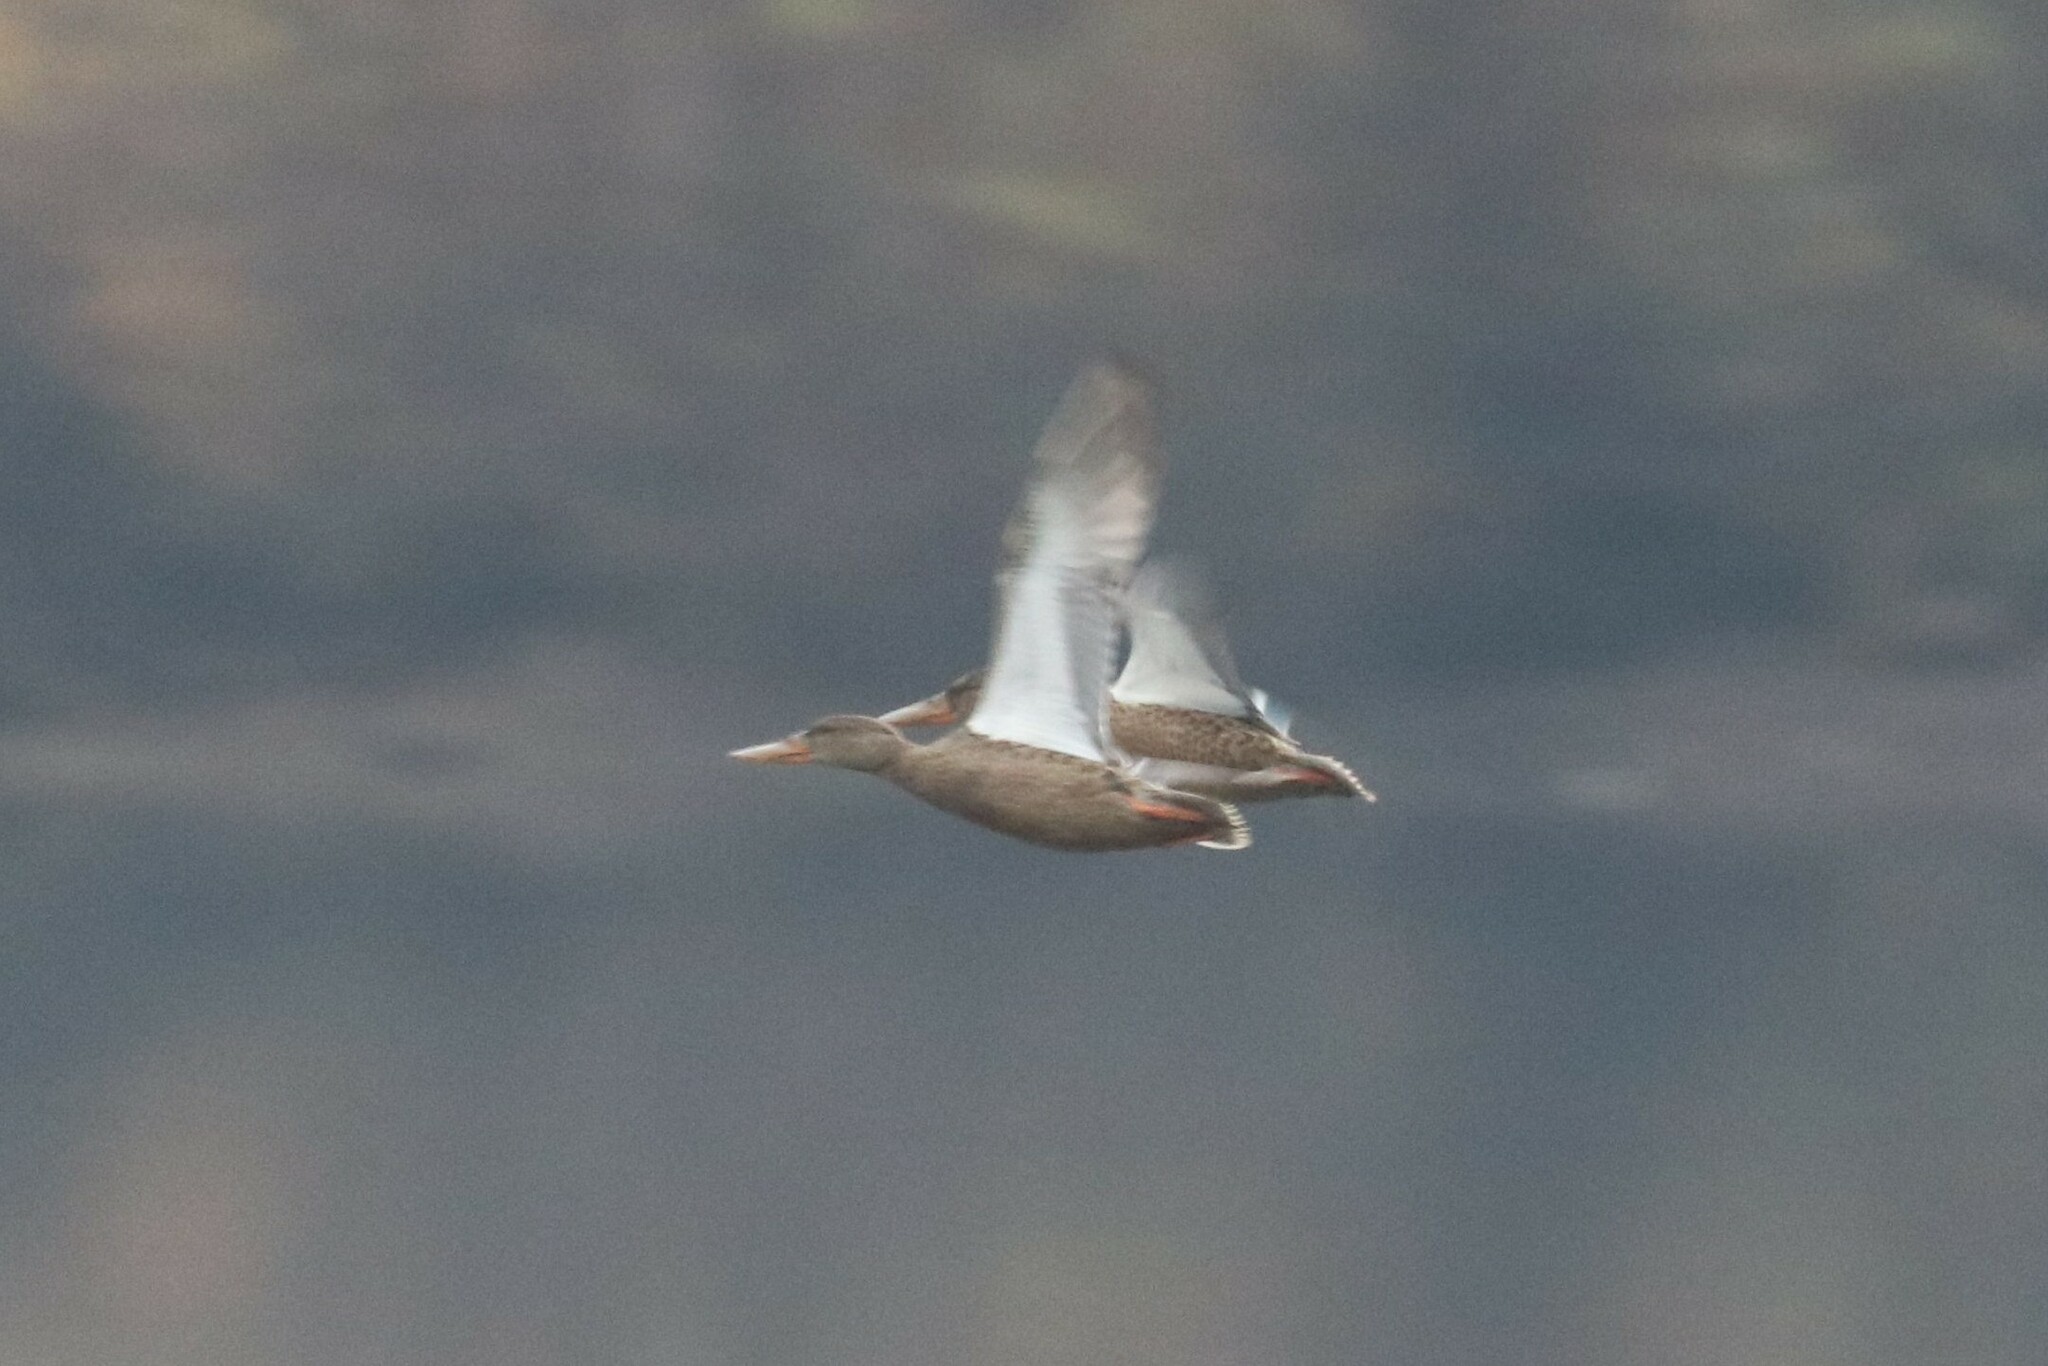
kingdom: Animalia
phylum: Chordata
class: Aves
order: Anseriformes
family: Anatidae
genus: Spatula
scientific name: Spatula clypeata
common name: Northern shoveler
